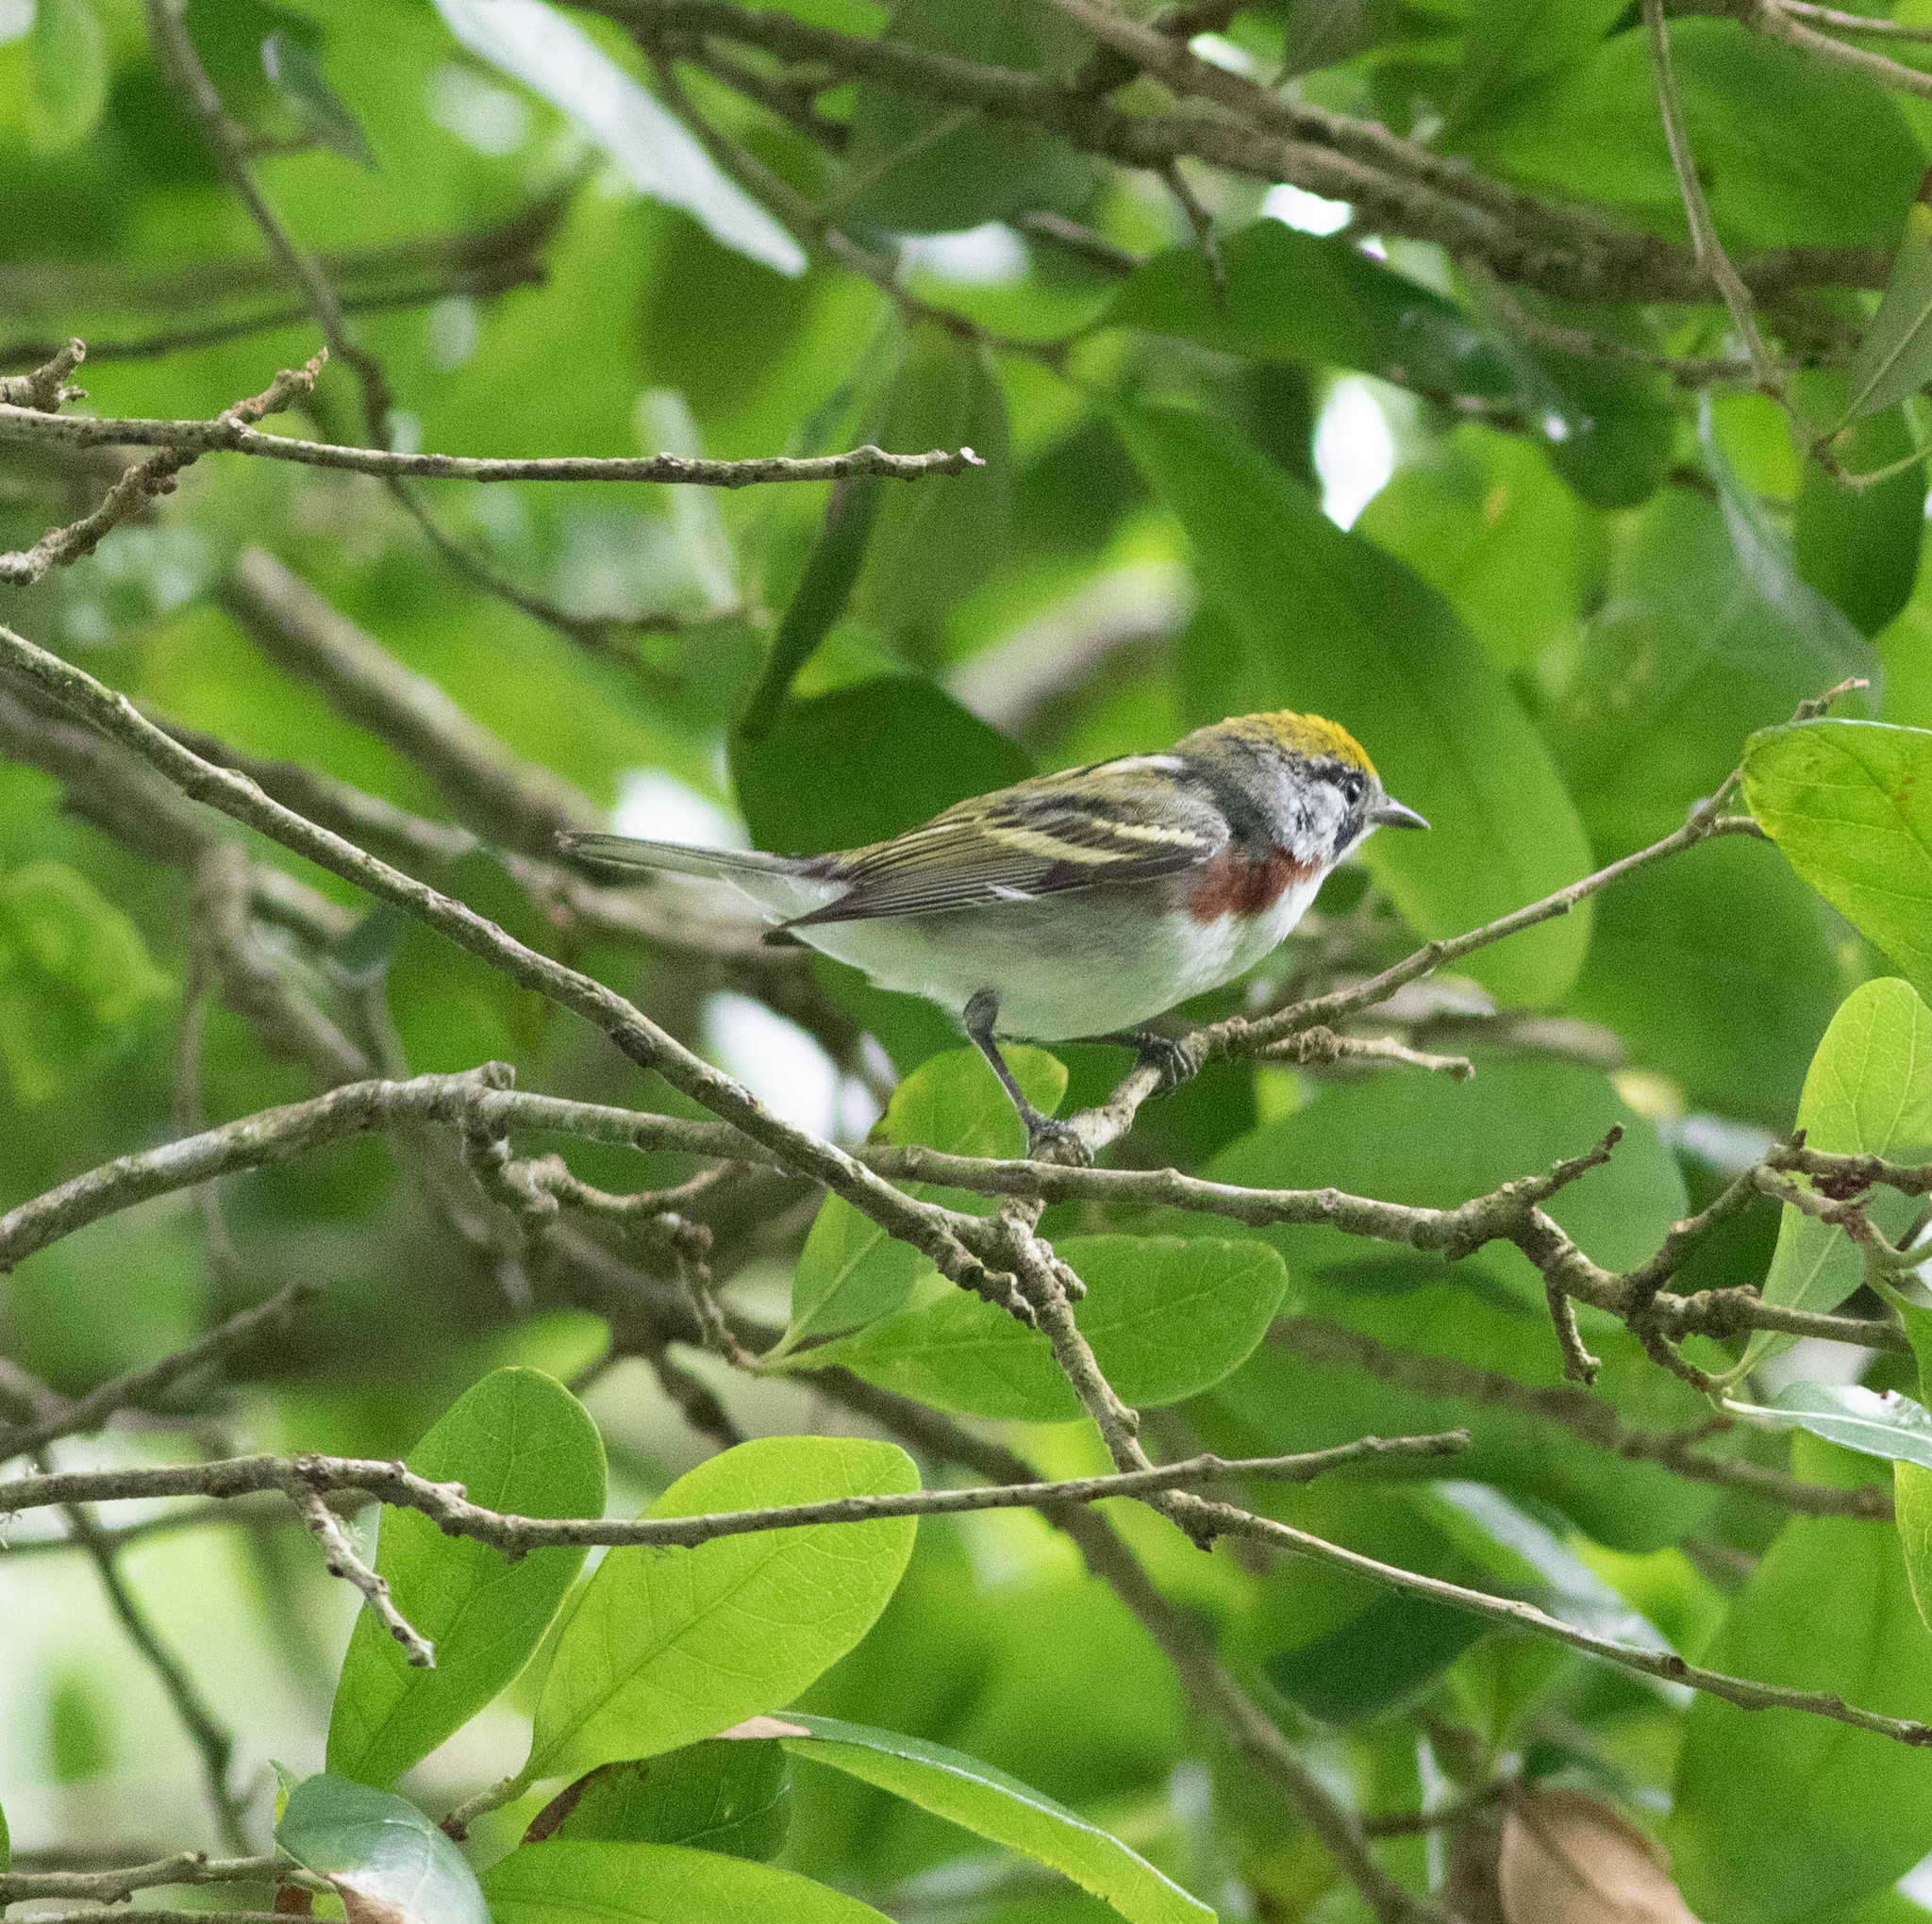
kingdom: Animalia
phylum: Chordata
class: Aves
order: Passeriformes
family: Parulidae
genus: Setophaga
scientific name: Setophaga pensylvanica
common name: Chestnut-sided warbler
